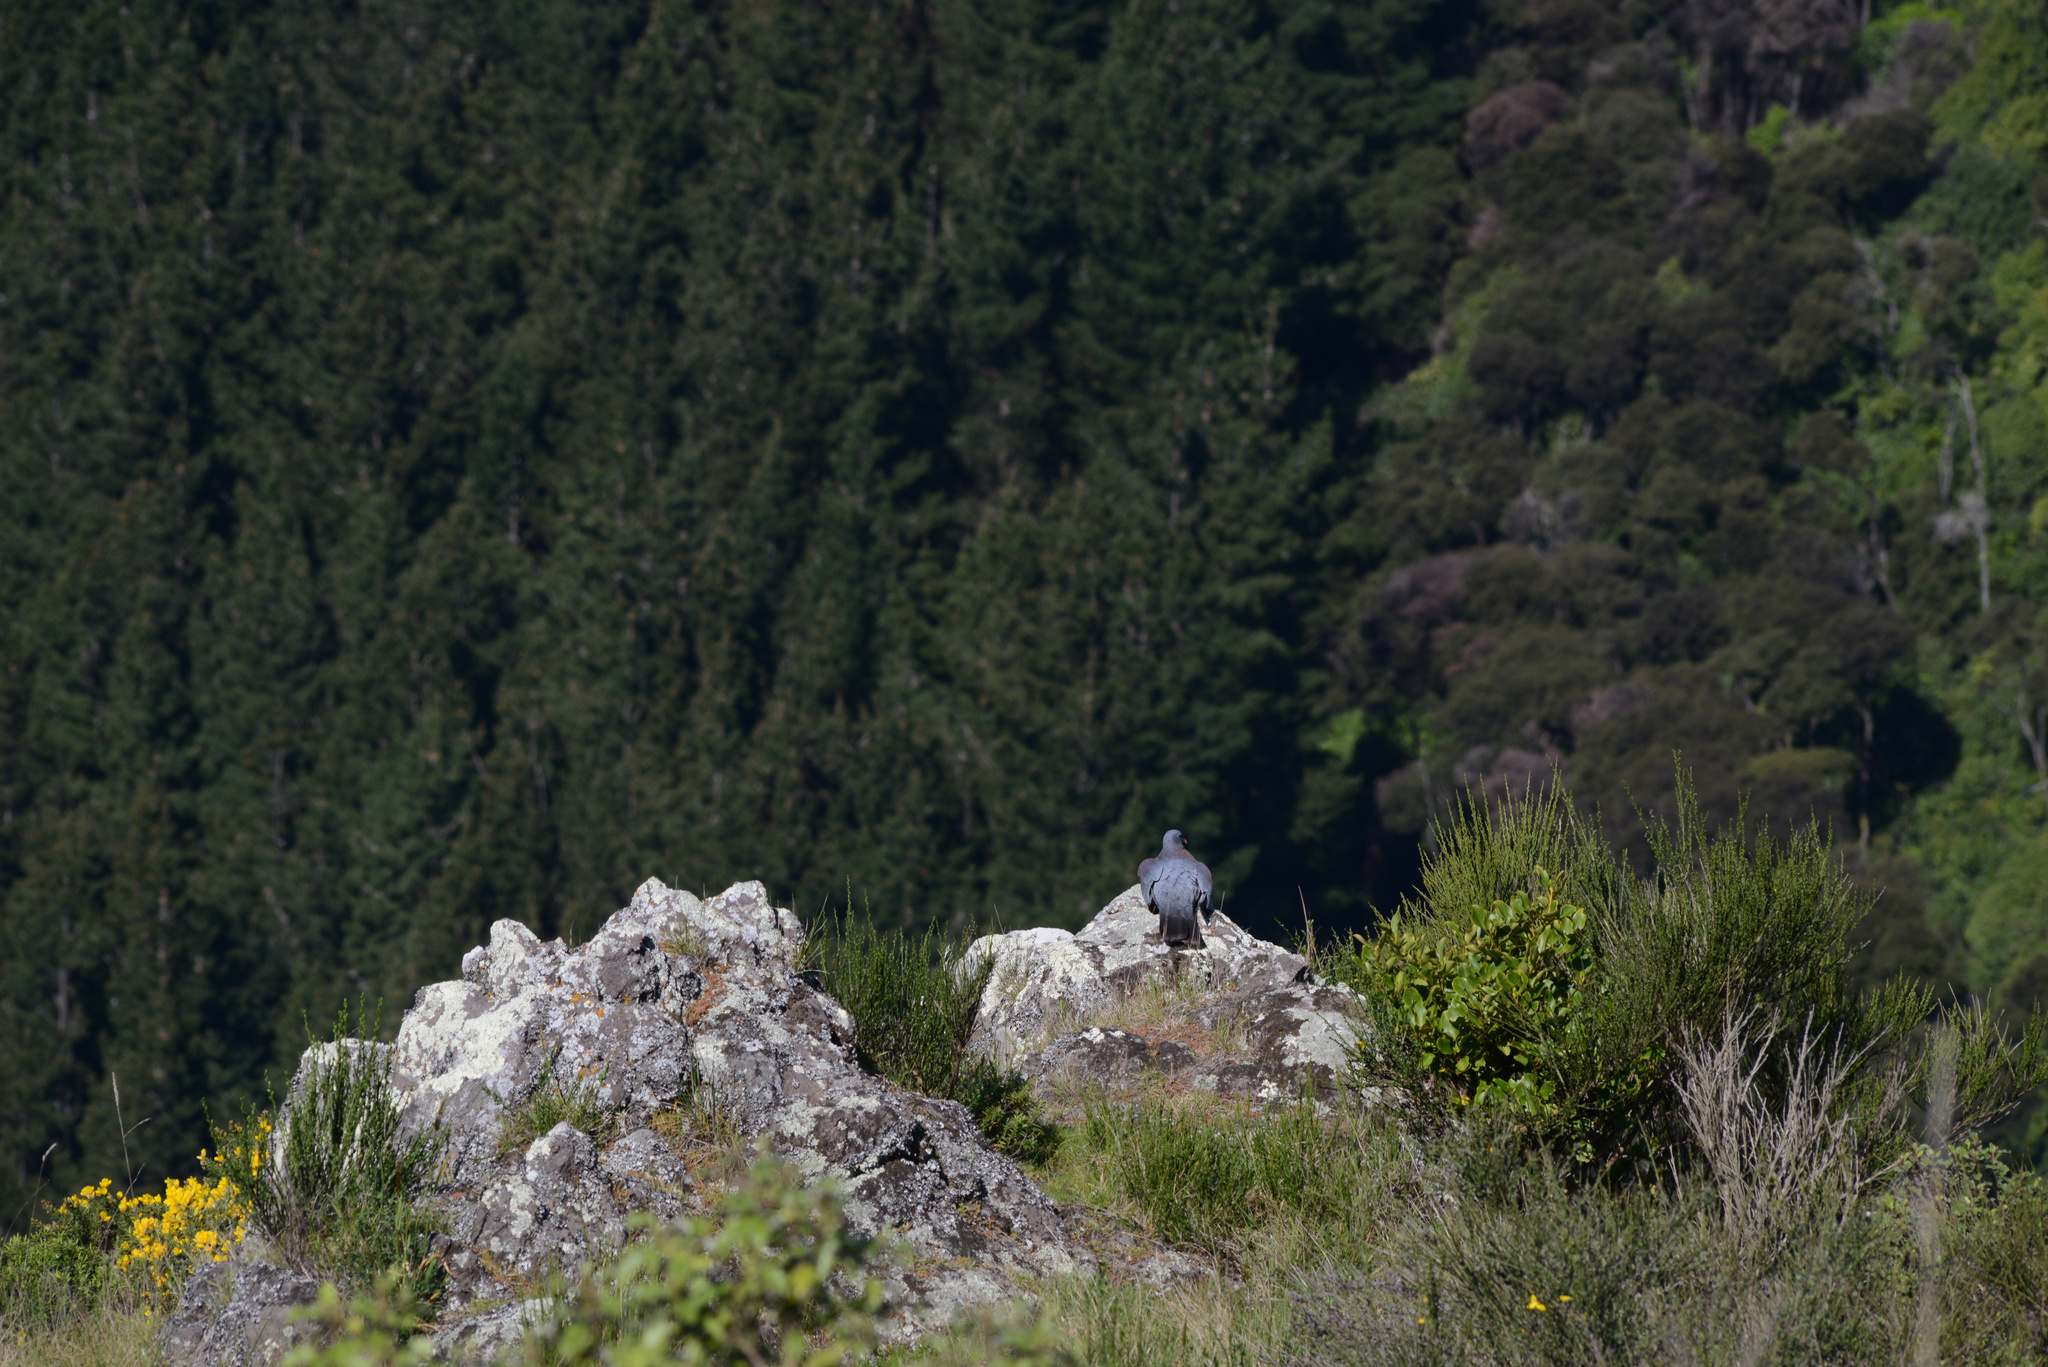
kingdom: Animalia
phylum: Chordata
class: Aves
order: Columbiformes
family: Columbidae
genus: Hemiphaga
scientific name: Hemiphaga novaeseelandiae
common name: New zealand pigeon
